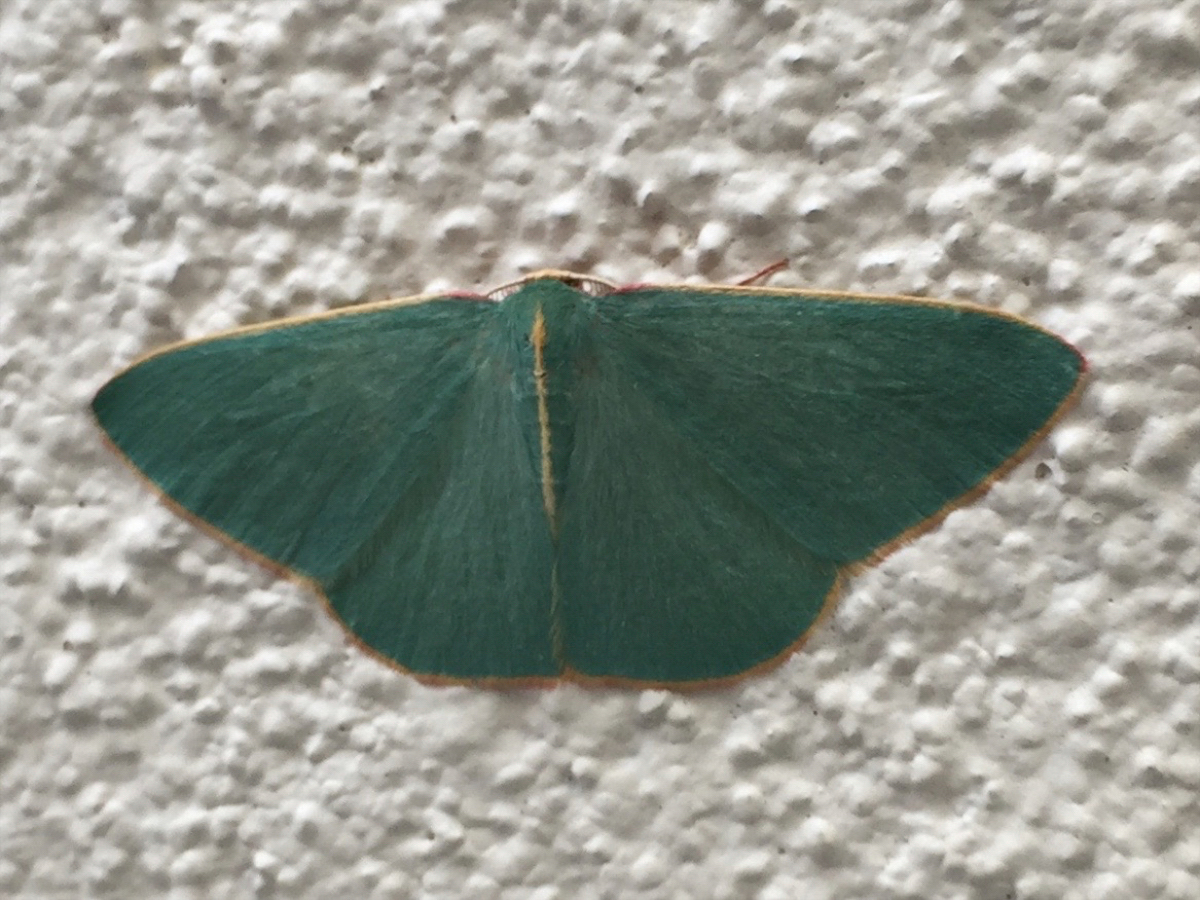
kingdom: Animalia
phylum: Arthropoda
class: Insecta
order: Lepidoptera
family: Geometridae
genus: Chlorocoma
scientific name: Chlorocoma assimilis
